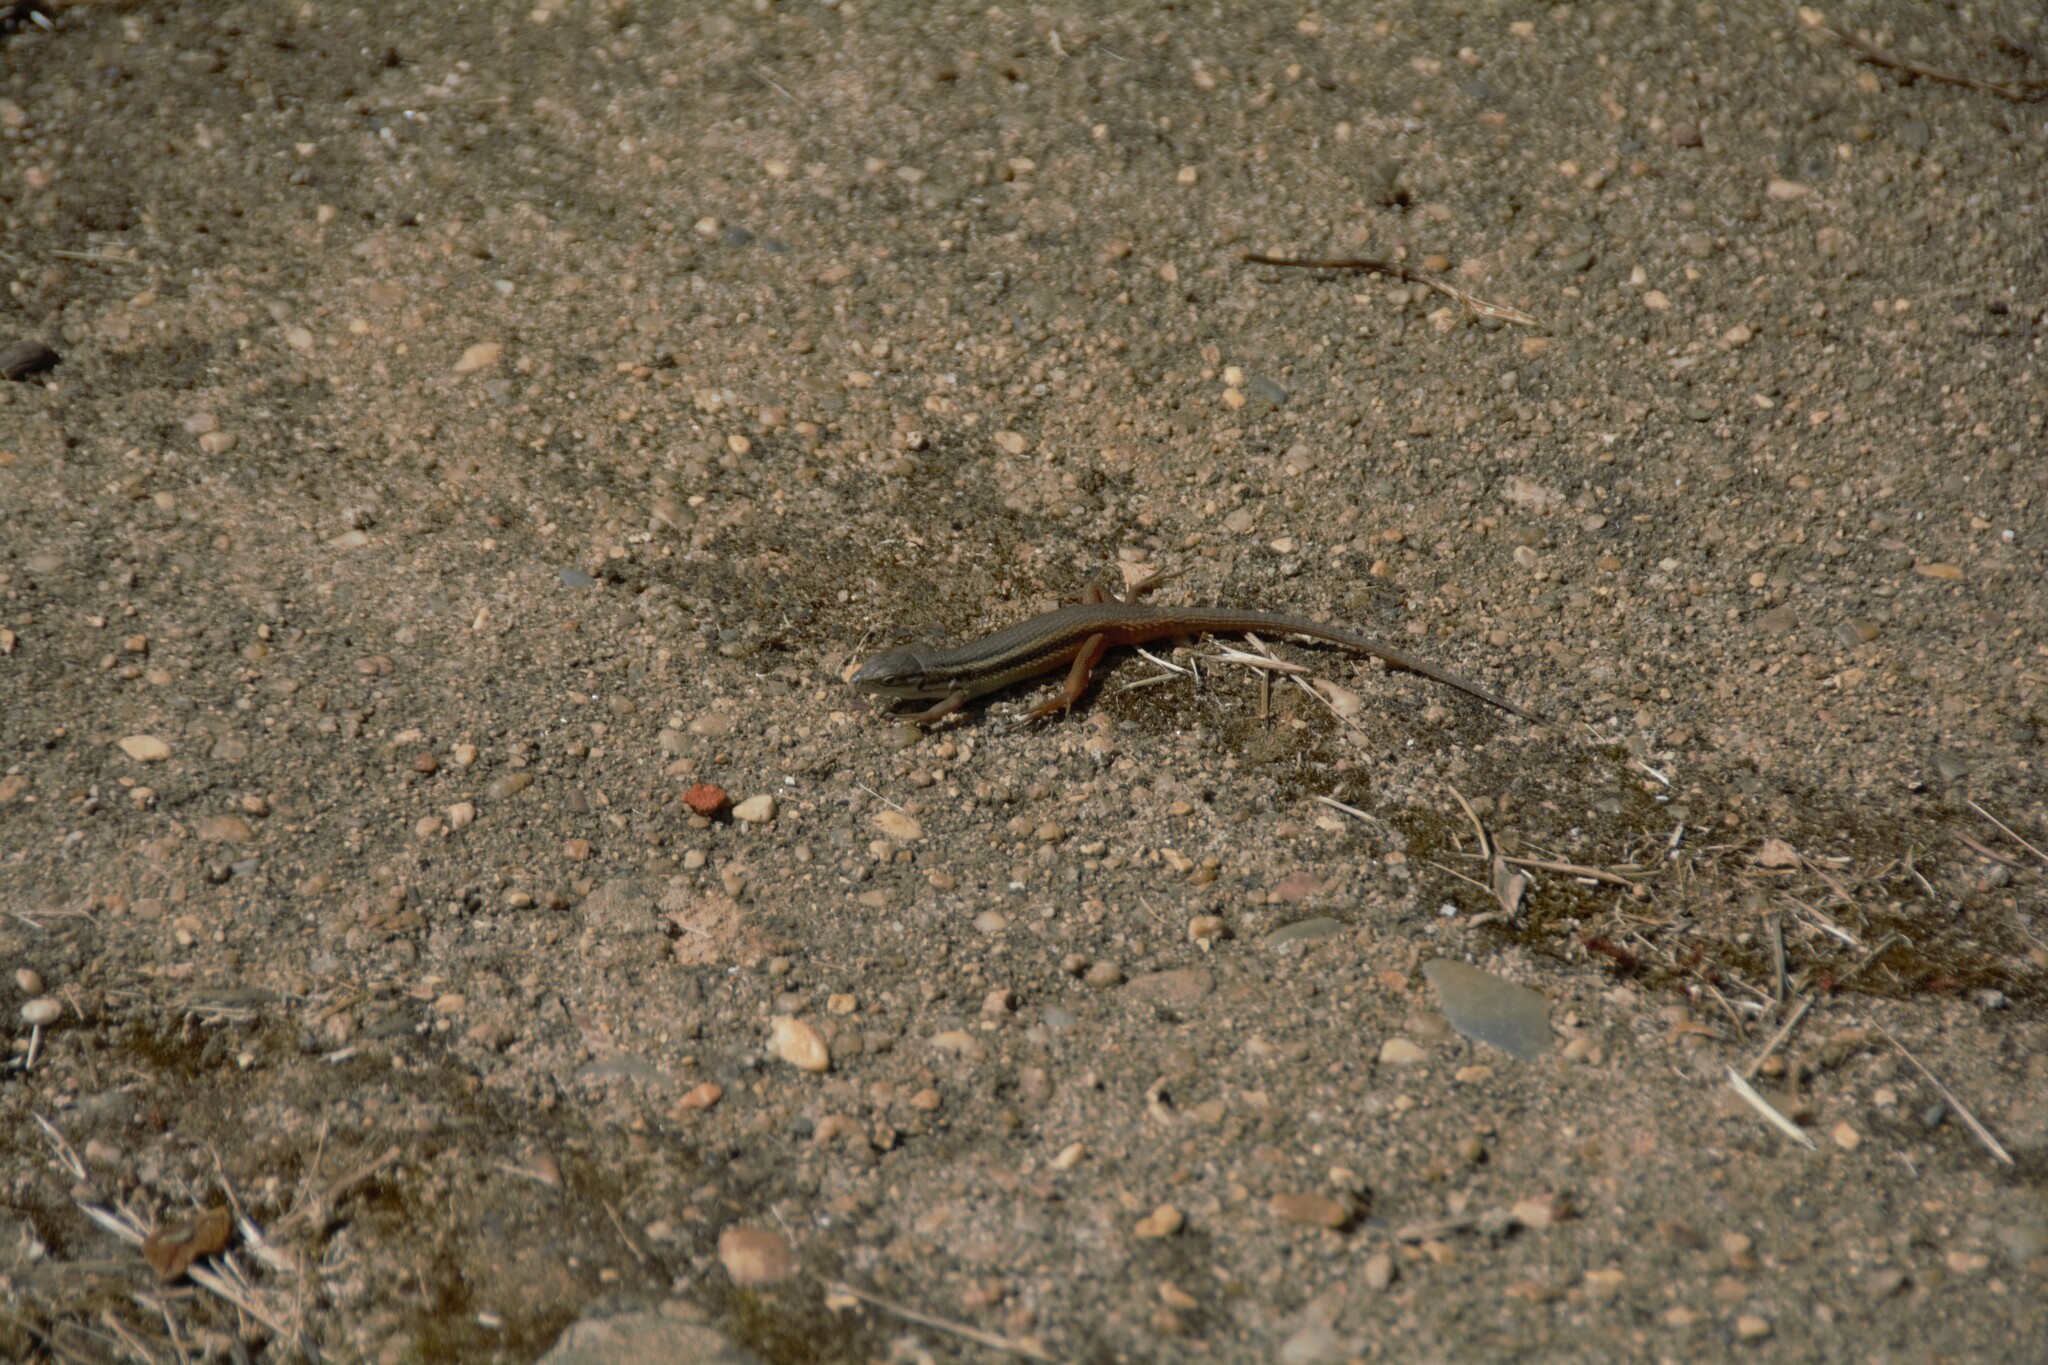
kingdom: Animalia
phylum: Chordata
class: Squamata
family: Lacertidae
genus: Psammodromus
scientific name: Psammodromus algirus
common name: Algerian psammodromus
